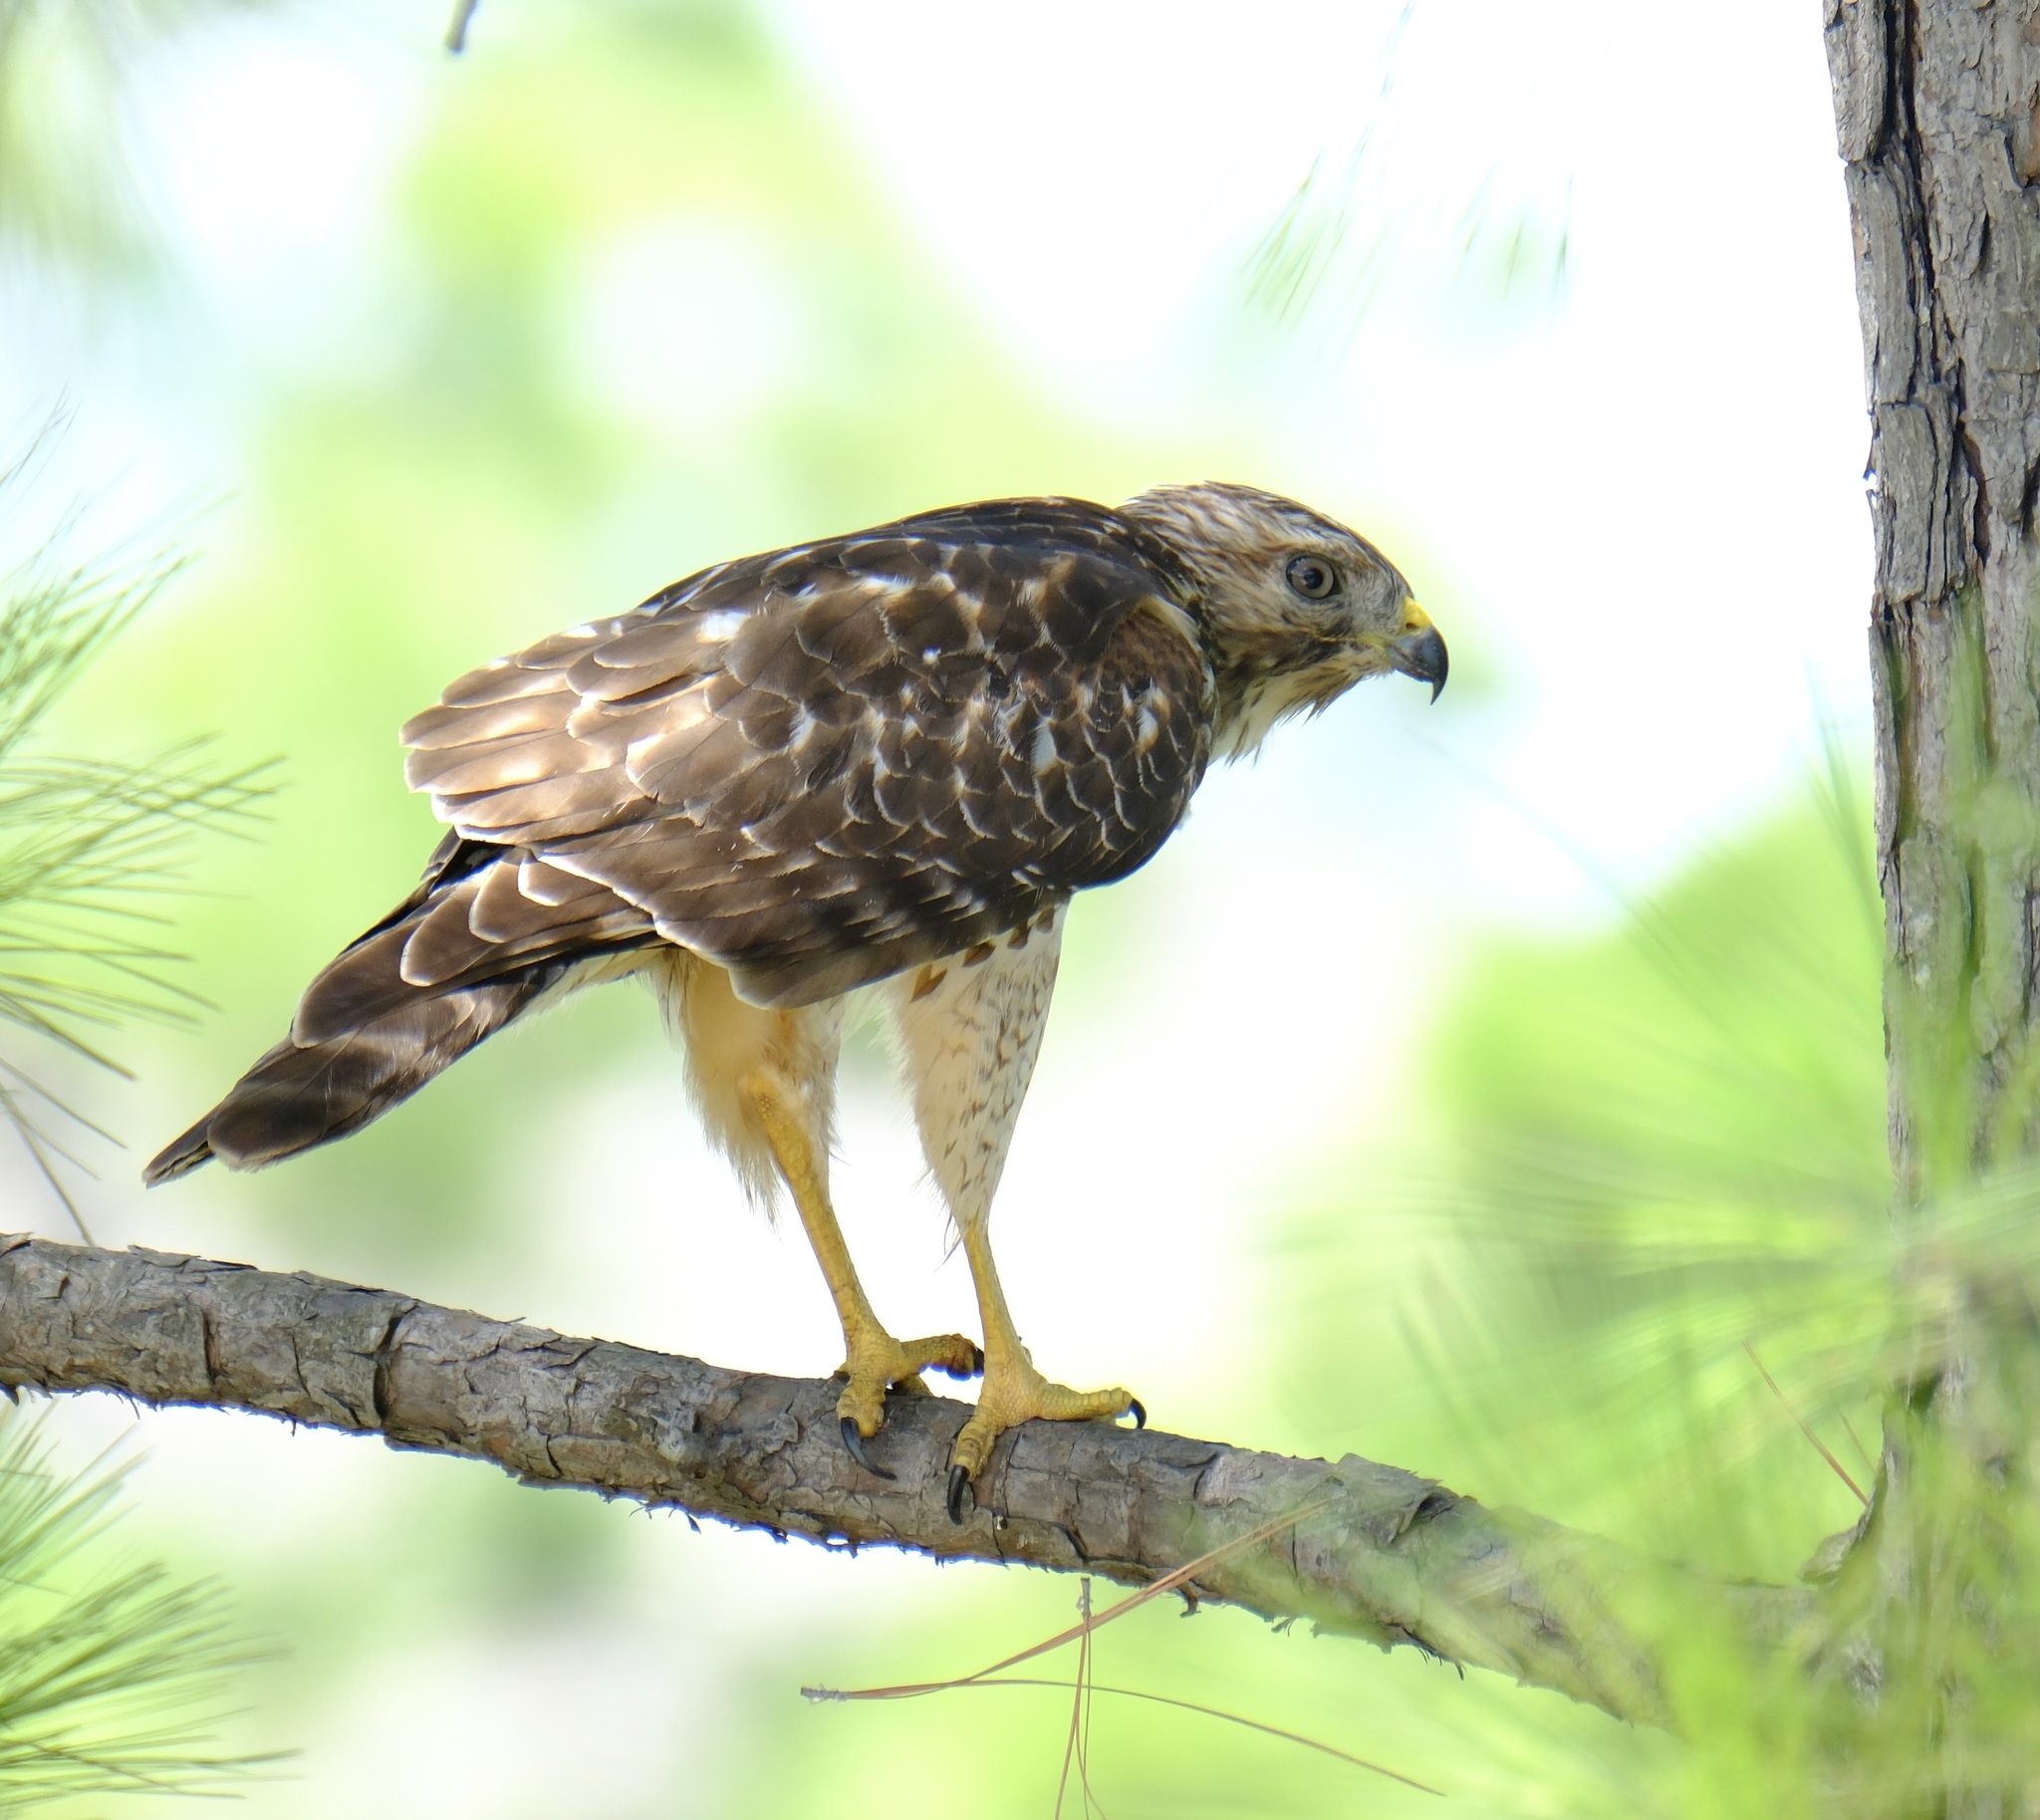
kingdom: Animalia
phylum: Chordata
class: Aves
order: Accipitriformes
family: Accipitridae
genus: Buteo
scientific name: Buteo lineatus
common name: Red-shouldered hawk
